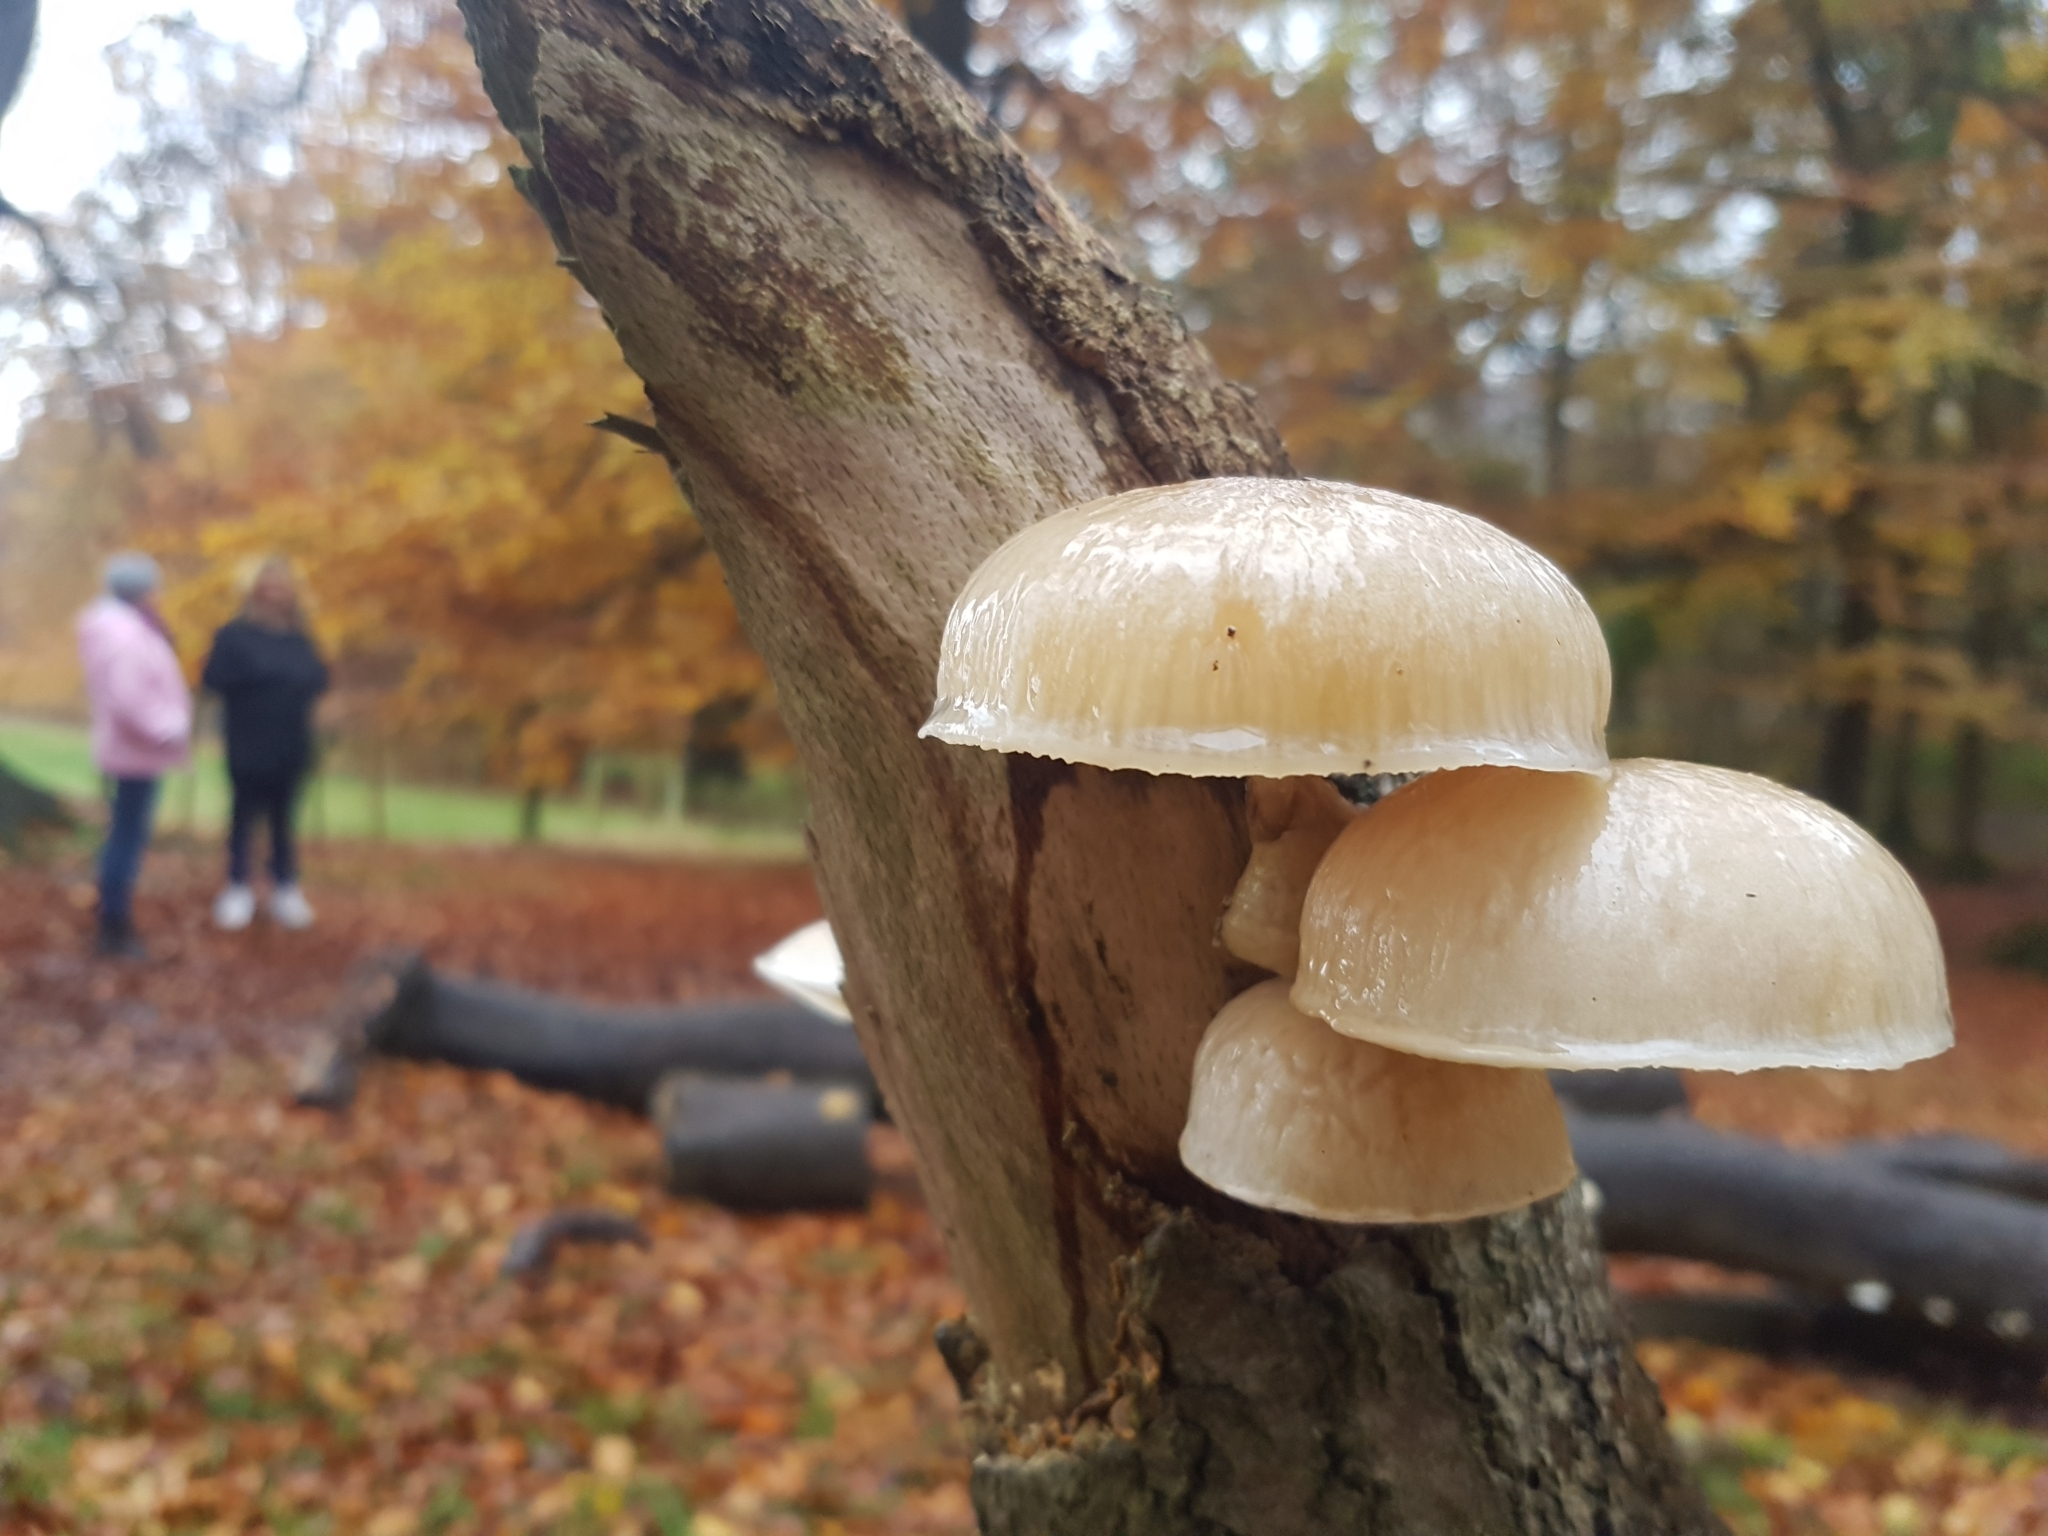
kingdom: Fungi
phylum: Basidiomycota
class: Agaricomycetes
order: Agaricales
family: Physalacriaceae
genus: Mucidula
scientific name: Mucidula mucida
